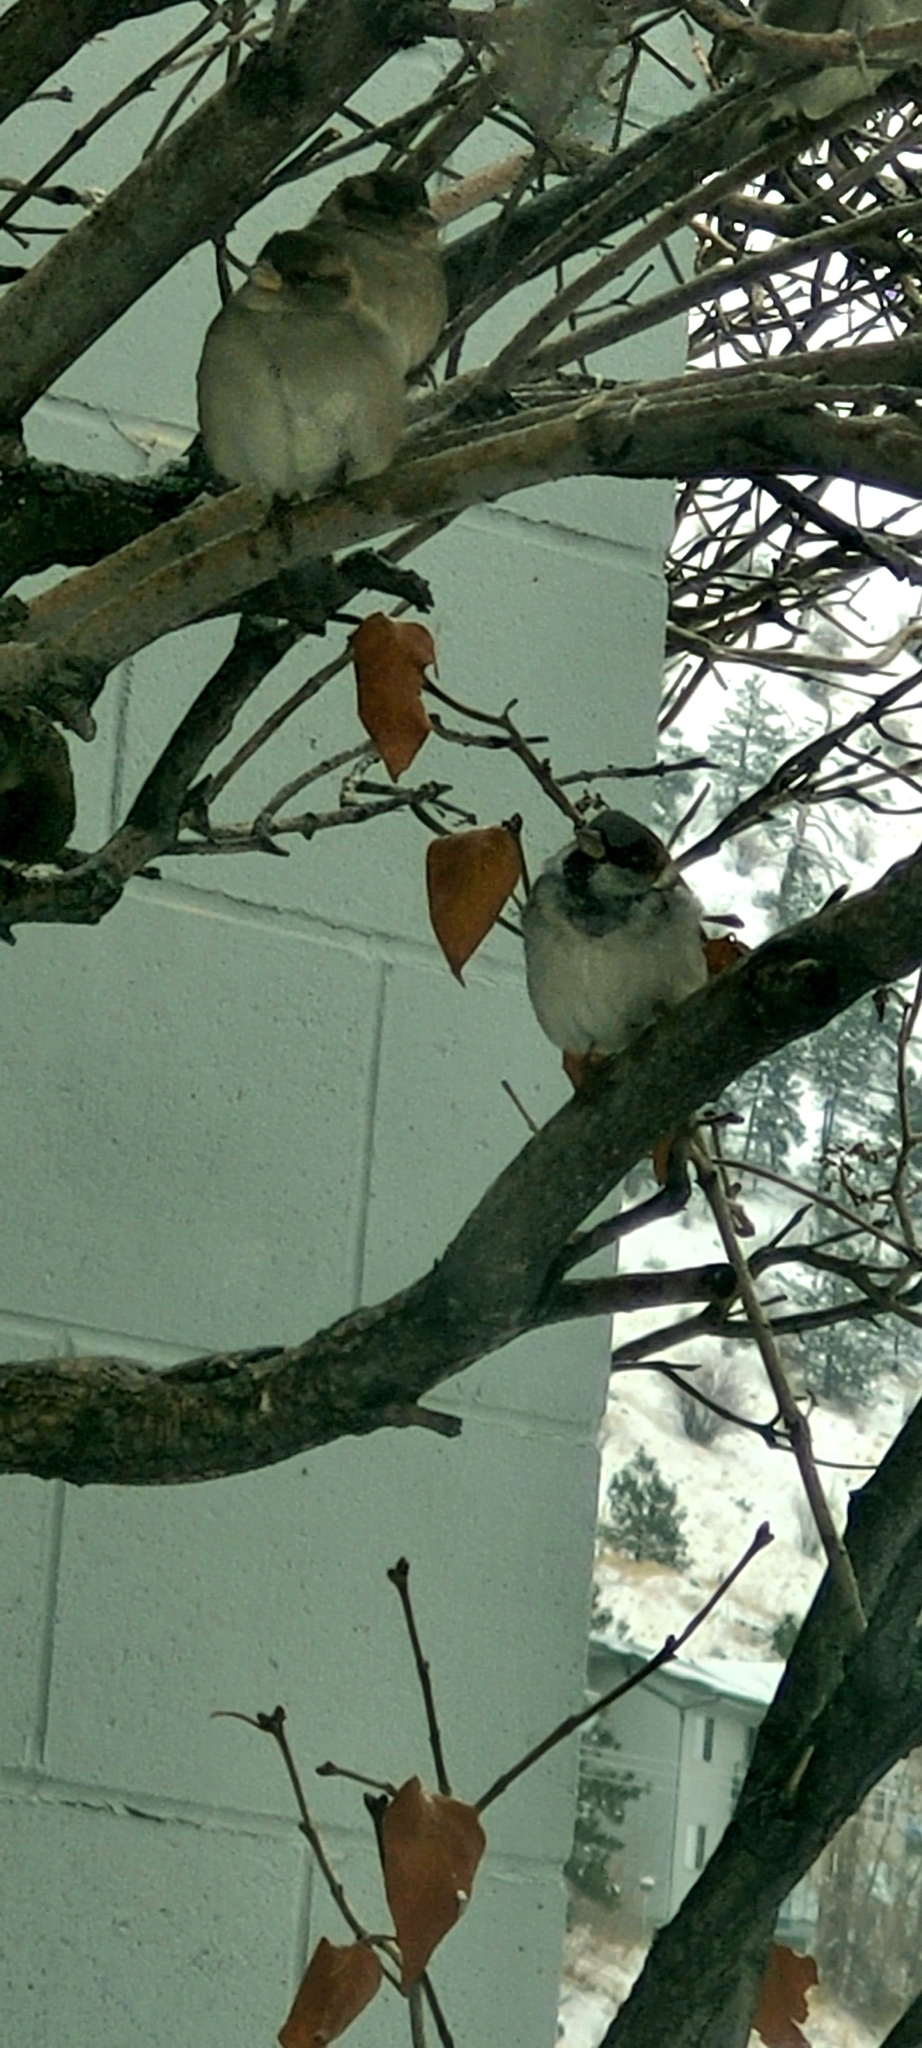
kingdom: Animalia
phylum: Chordata
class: Aves
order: Passeriformes
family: Passeridae
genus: Passer
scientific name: Passer domesticus
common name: House sparrow
